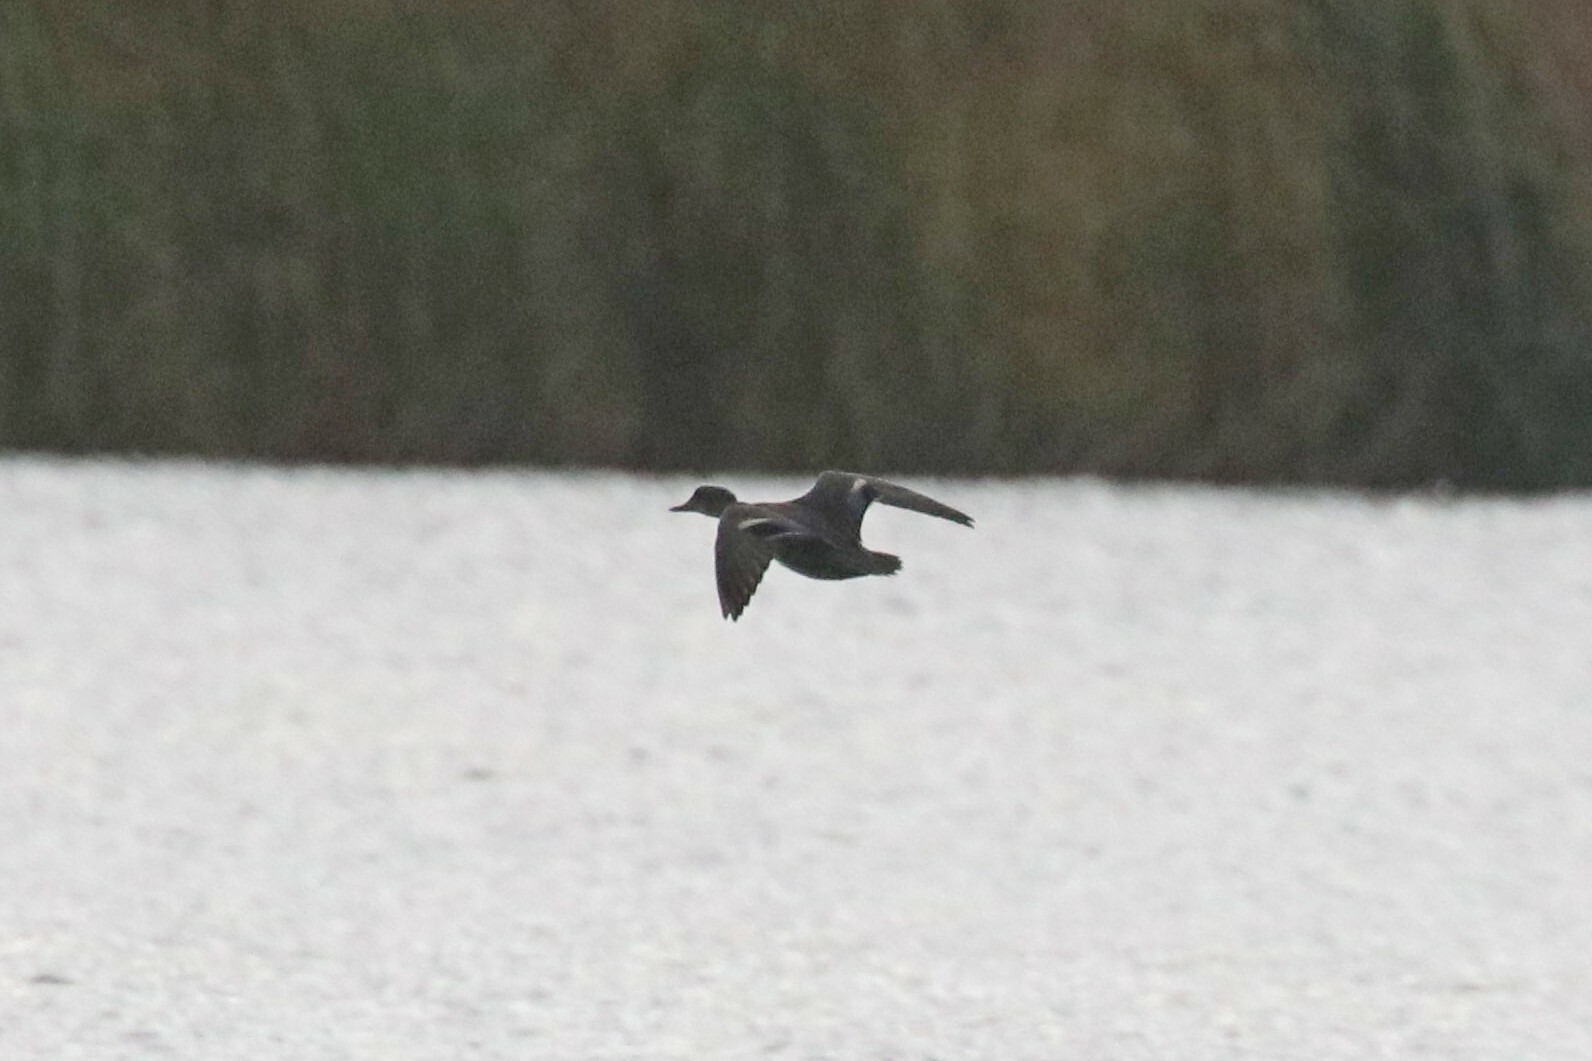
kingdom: Animalia
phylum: Chordata
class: Aves
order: Anseriformes
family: Anatidae
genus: Anas
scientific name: Anas crecca
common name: Eurasian teal
